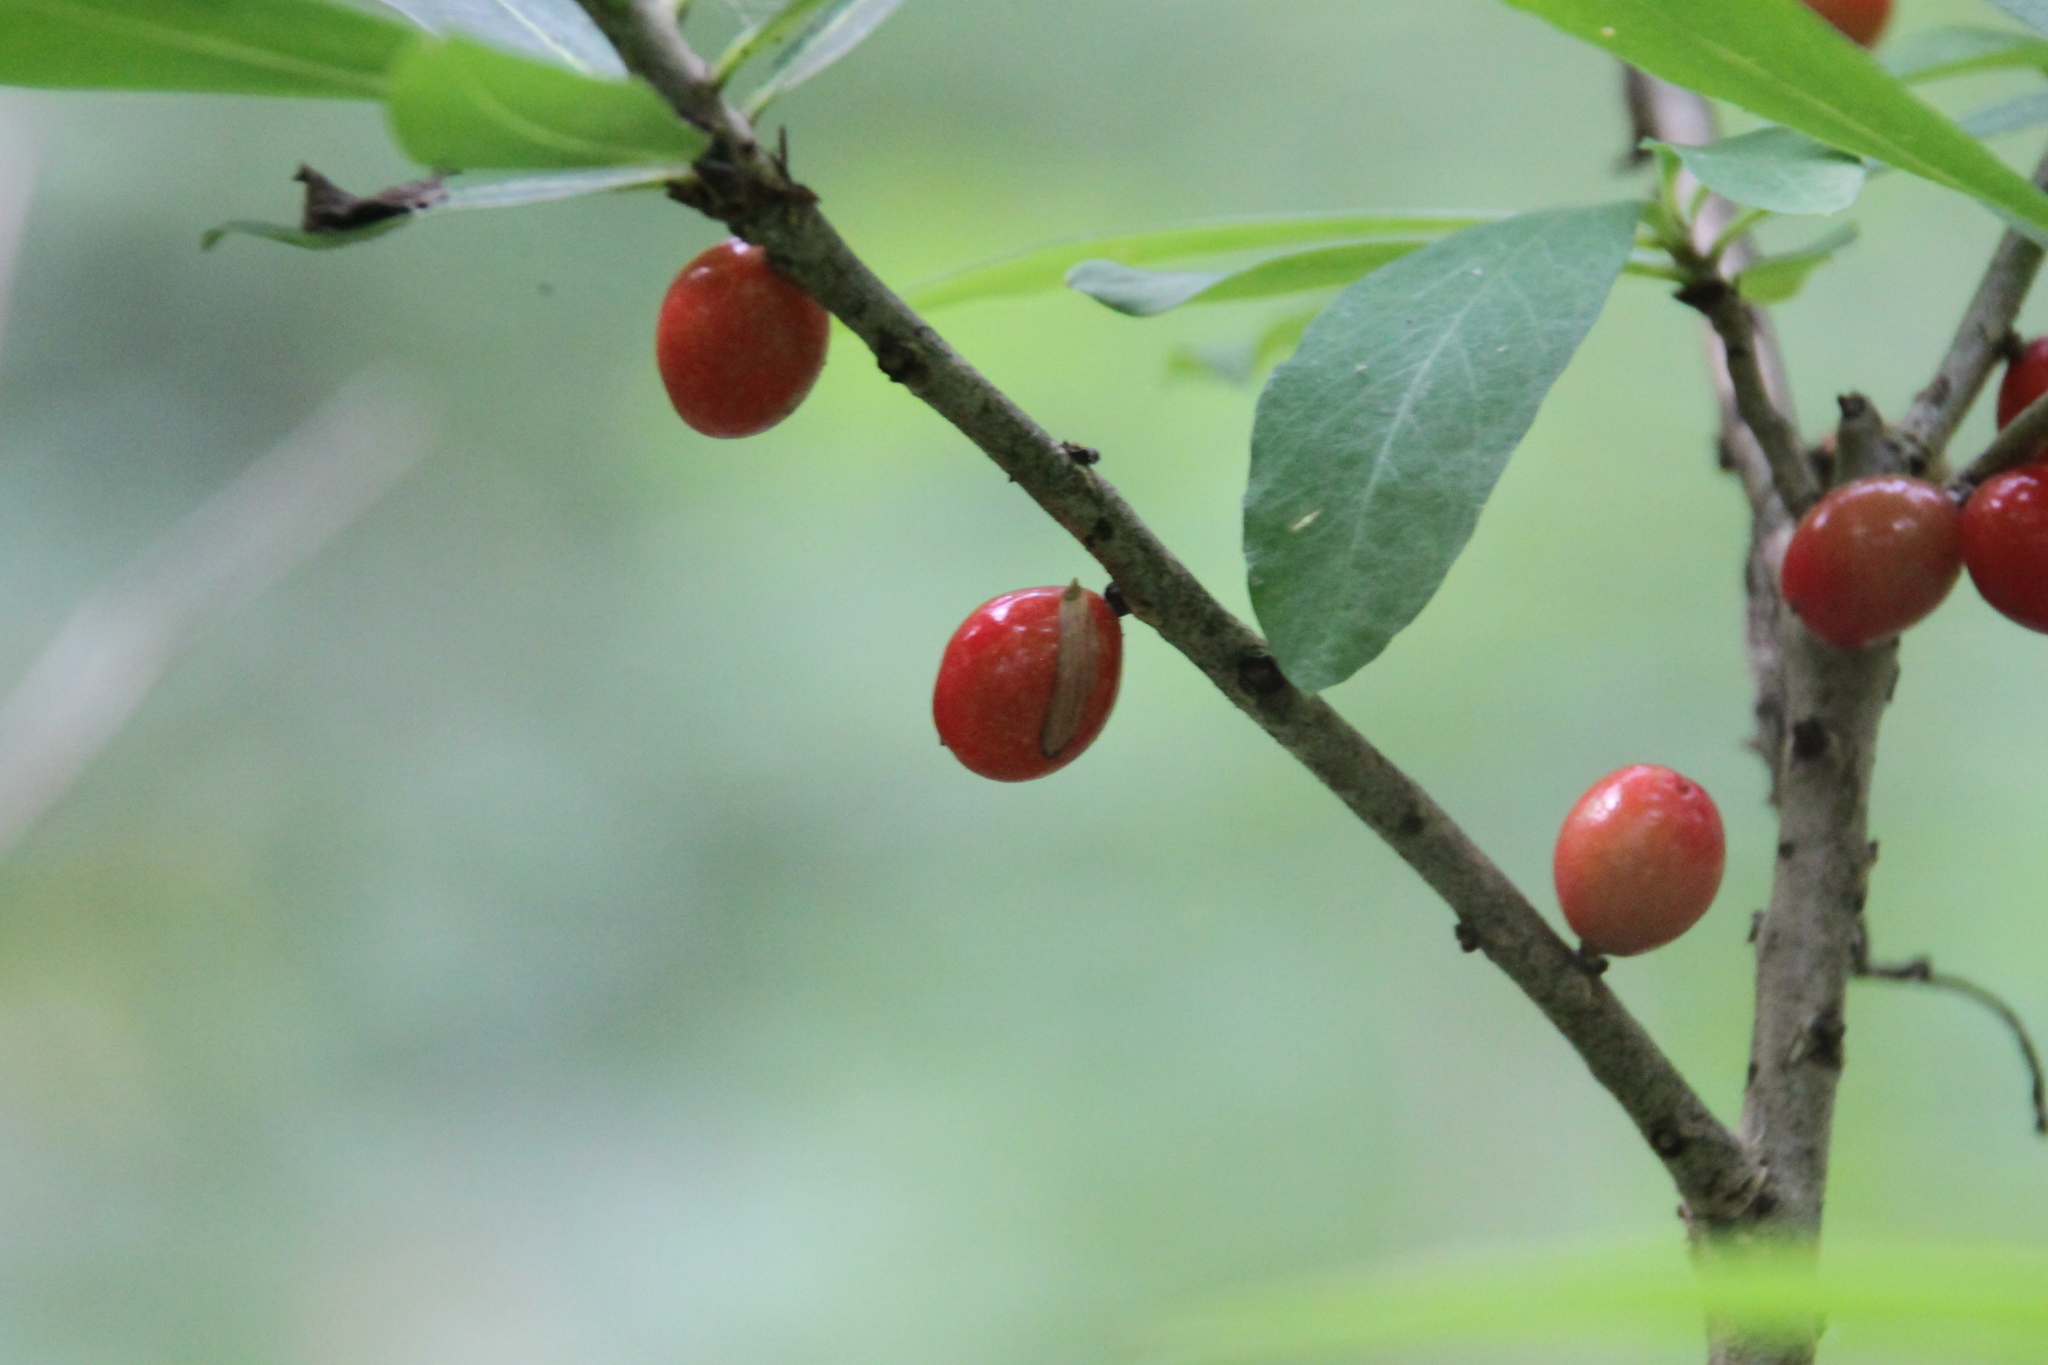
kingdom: Plantae
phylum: Tracheophyta
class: Magnoliopsida
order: Malvales
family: Thymelaeaceae
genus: Daphne
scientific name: Daphne mezereum
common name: Mezereon
